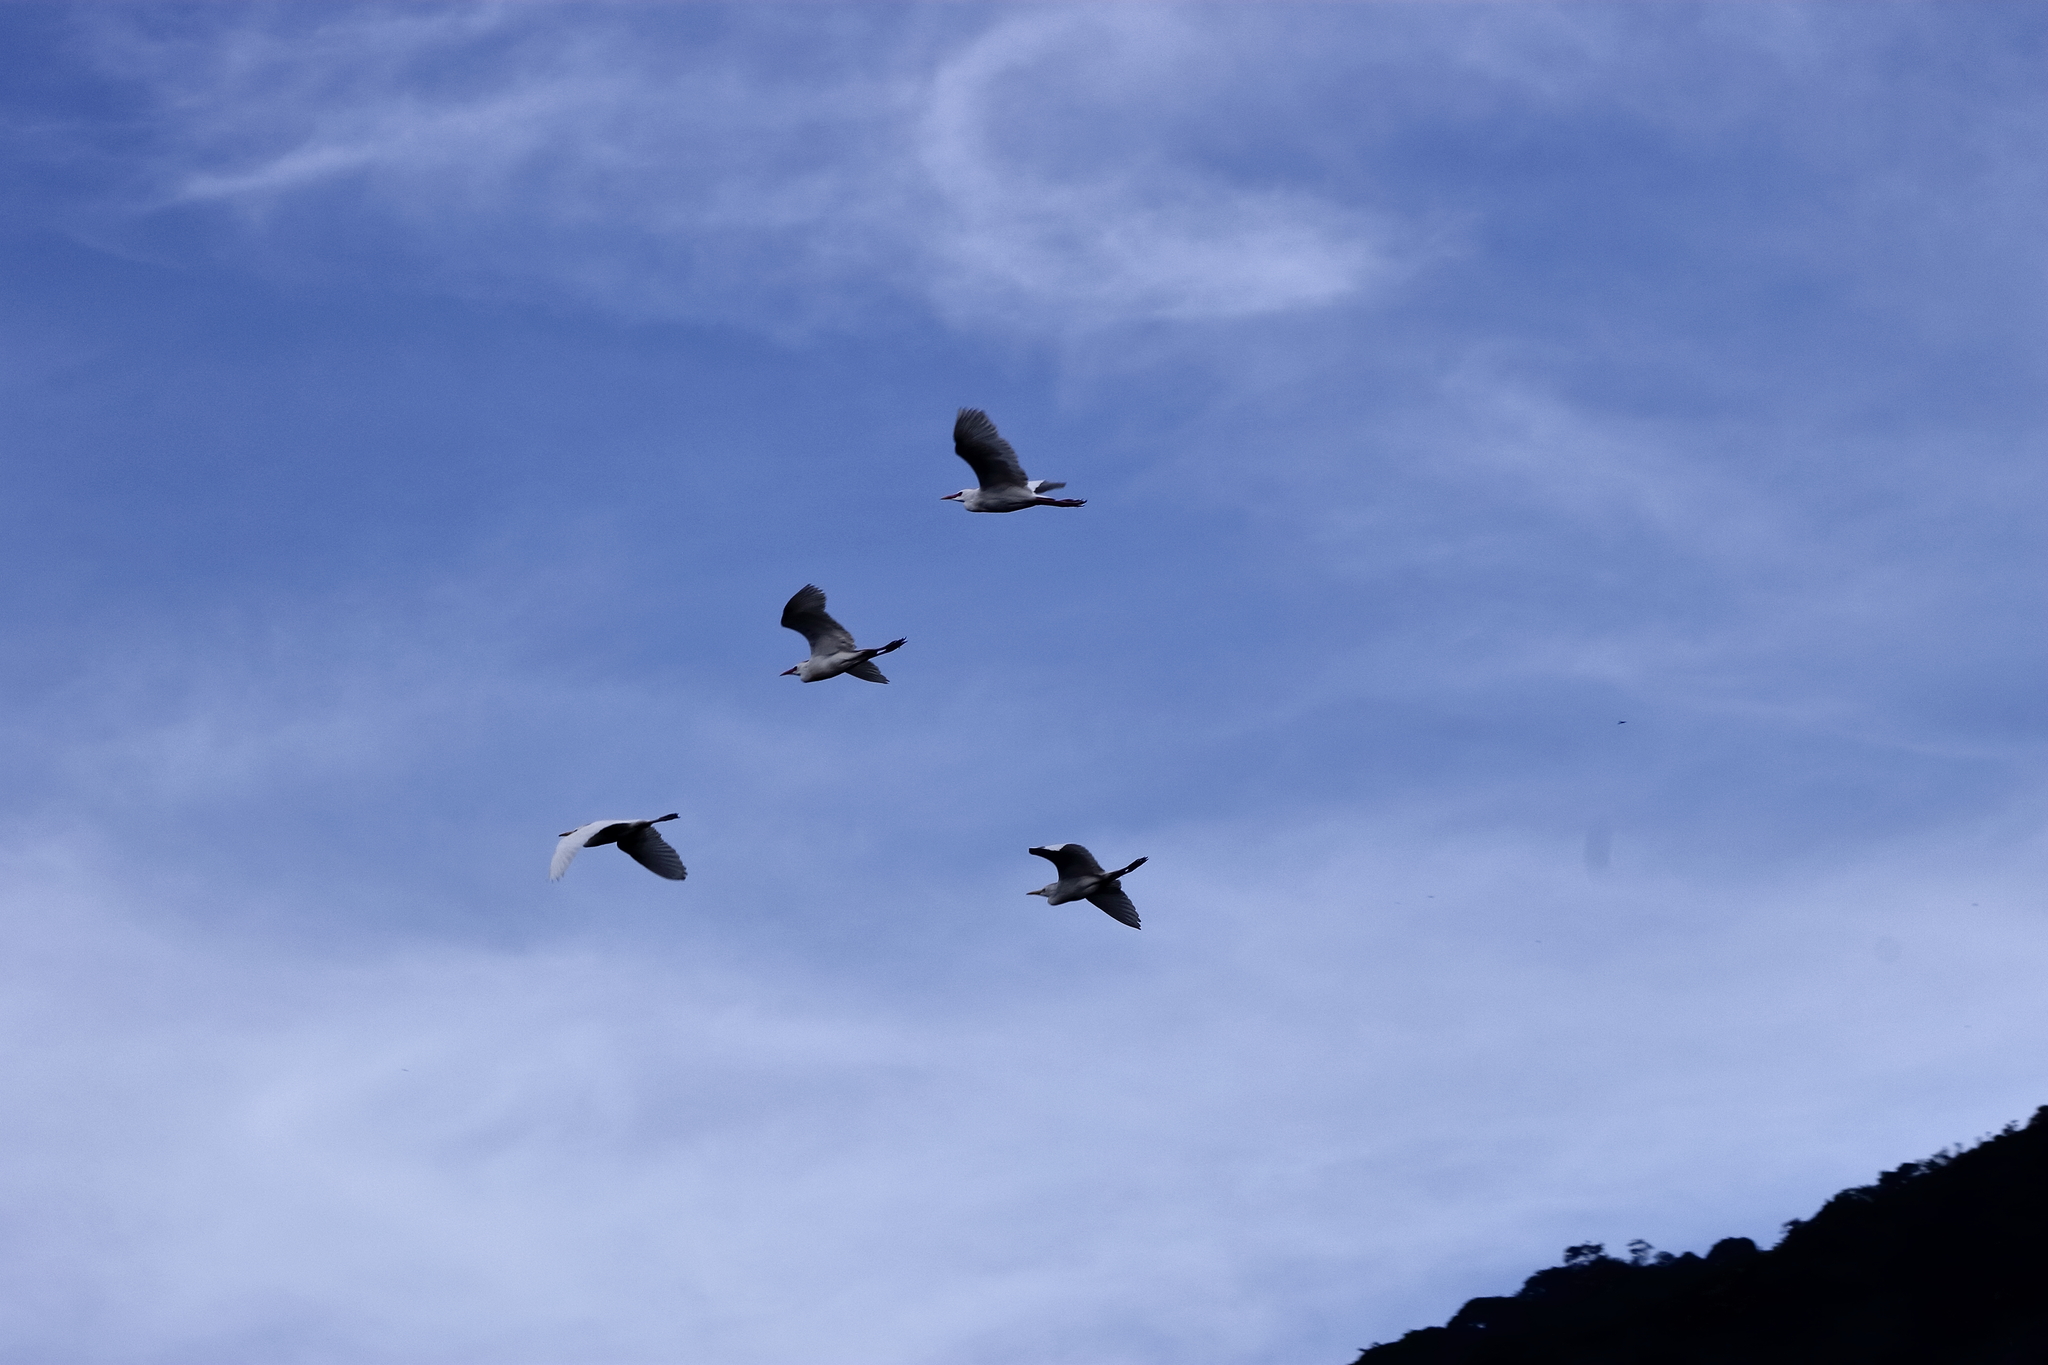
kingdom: Animalia
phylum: Chordata
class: Aves
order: Pelecaniformes
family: Ardeidae
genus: Bubulcus
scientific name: Bubulcus ibis
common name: Cattle egret
